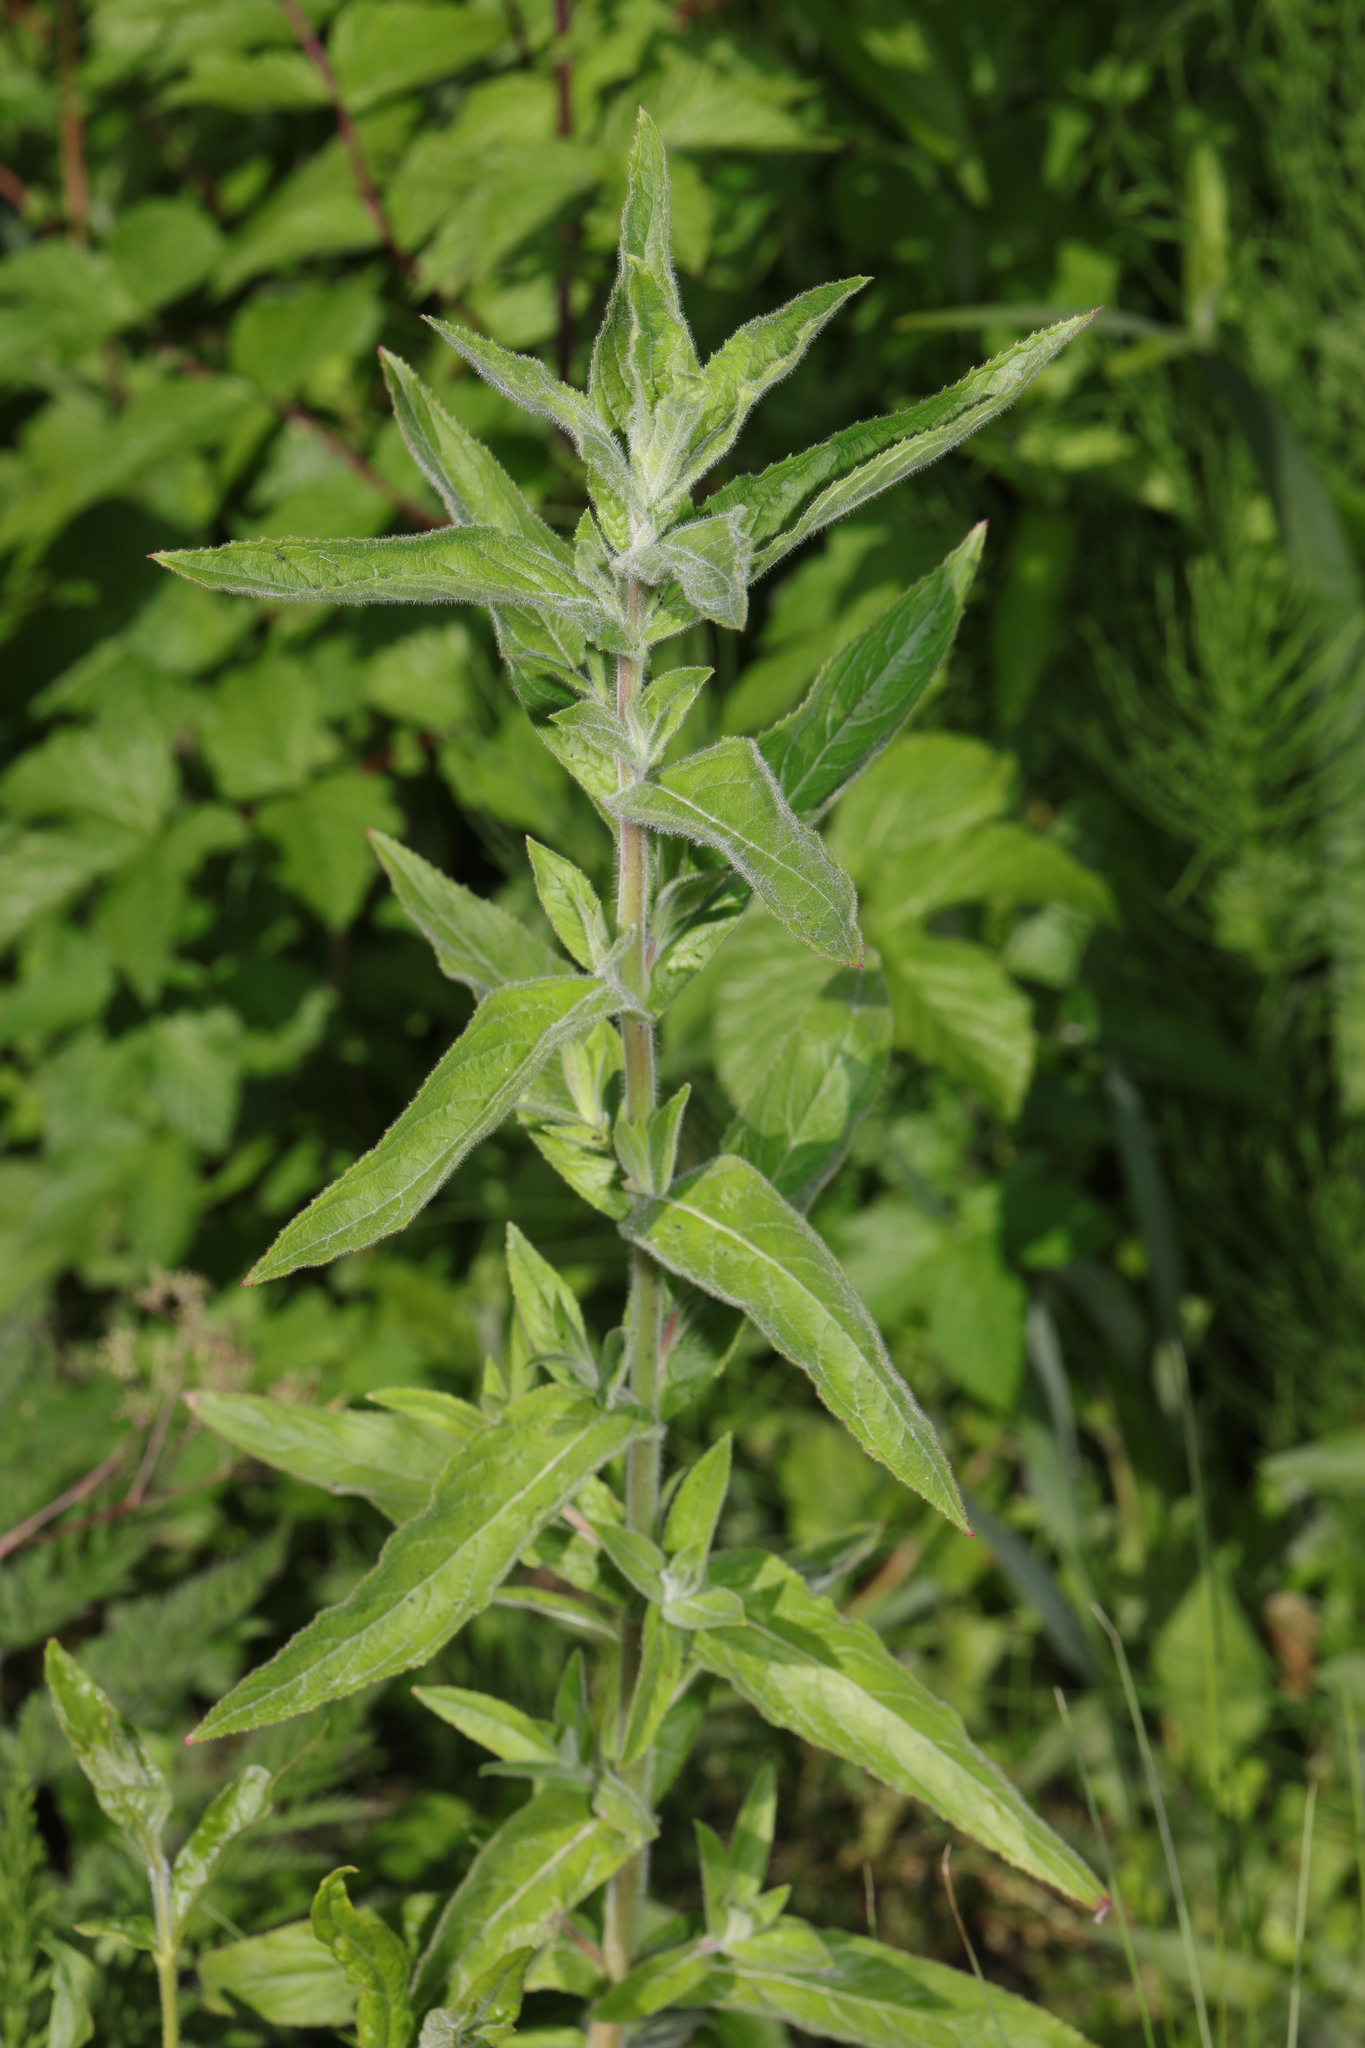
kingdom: Plantae
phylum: Tracheophyta
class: Magnoliopsida
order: Myrtales
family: Onagraceae
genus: Epilobium
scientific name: Epilobium hirsutum
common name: Great willowherb
